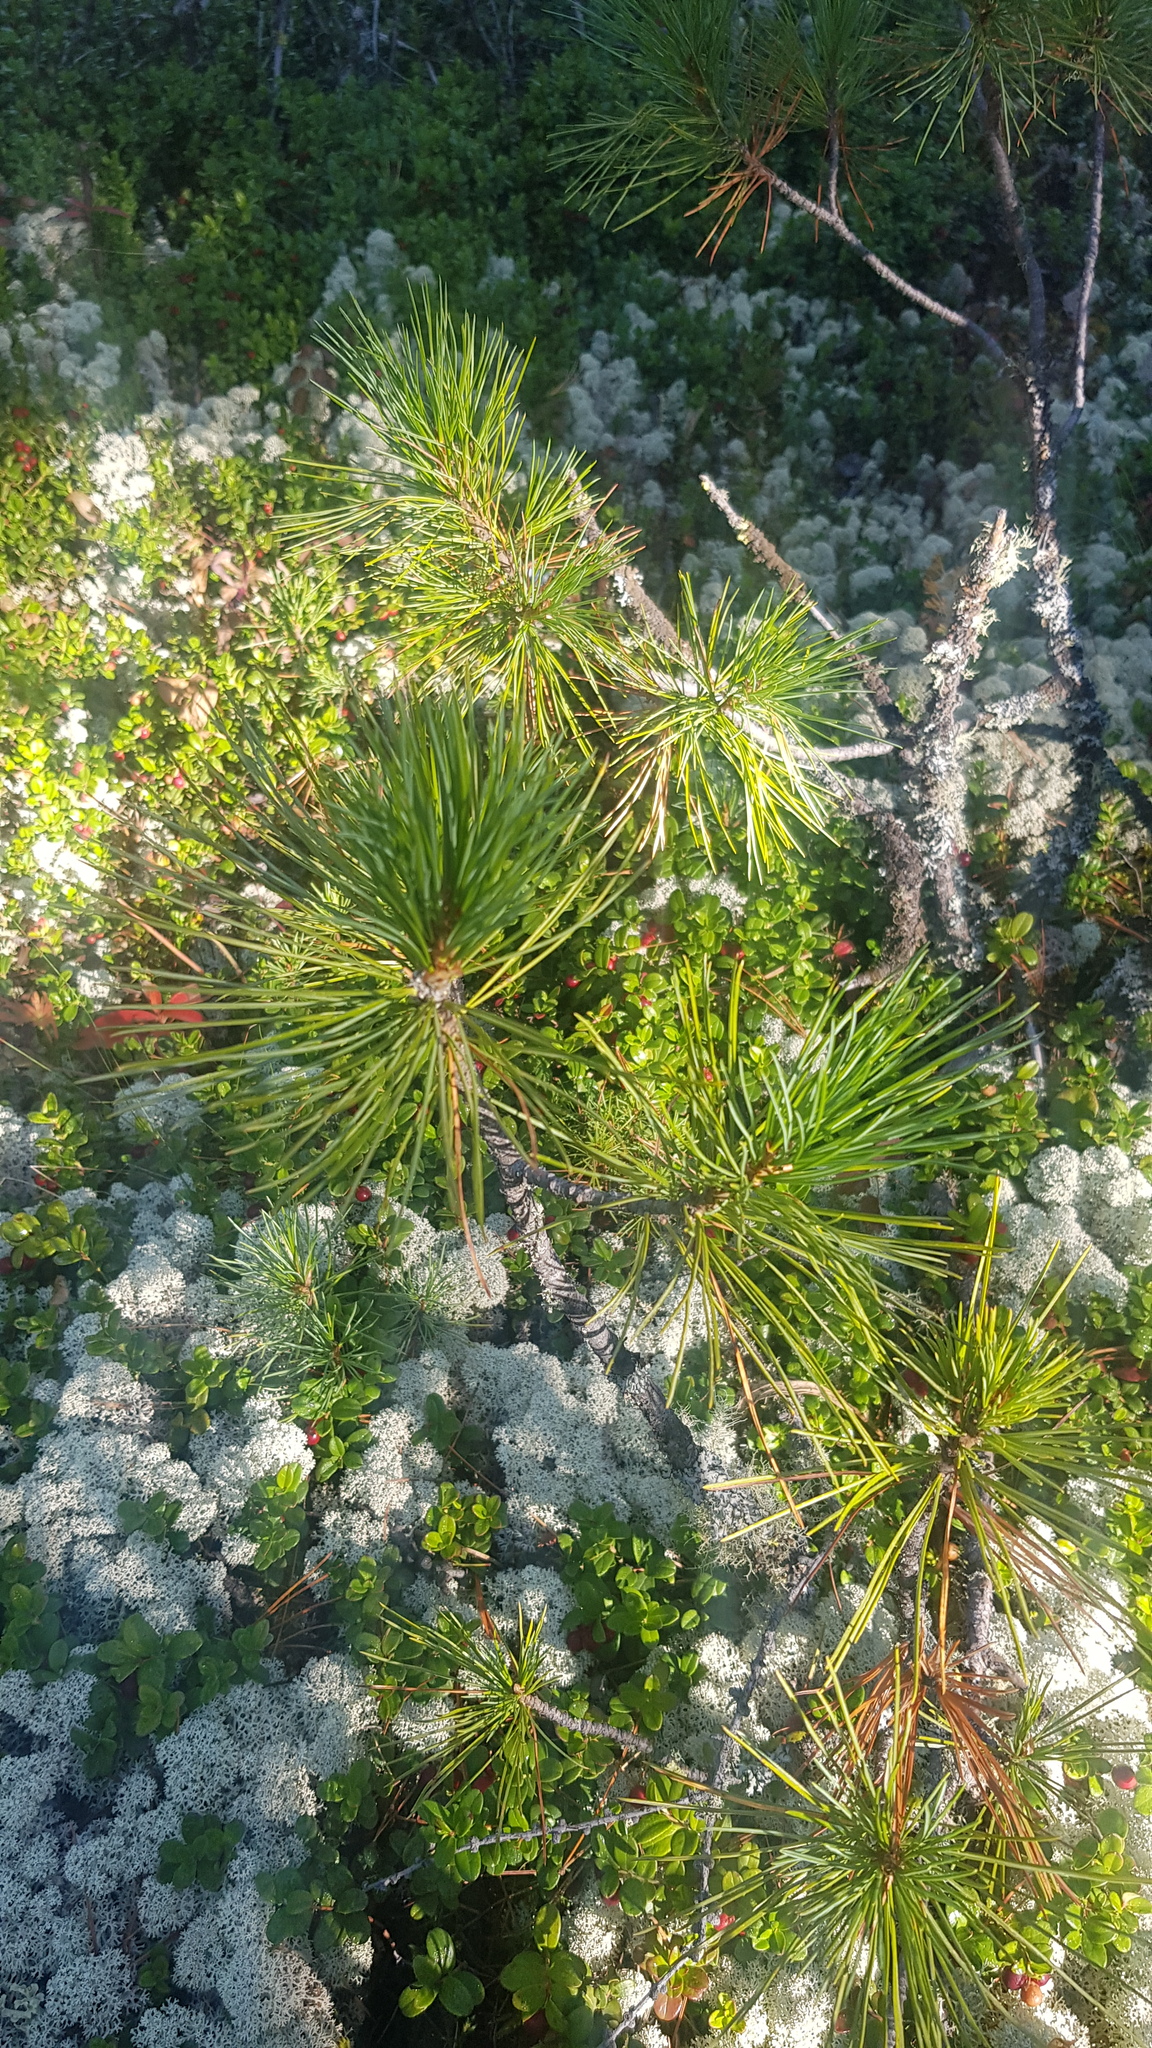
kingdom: Plantae
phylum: Tracheophyta
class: Pinopsida
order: Pinales
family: Pinaceae
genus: Pinus
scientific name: Pinus sibirica
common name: Siberian pine
